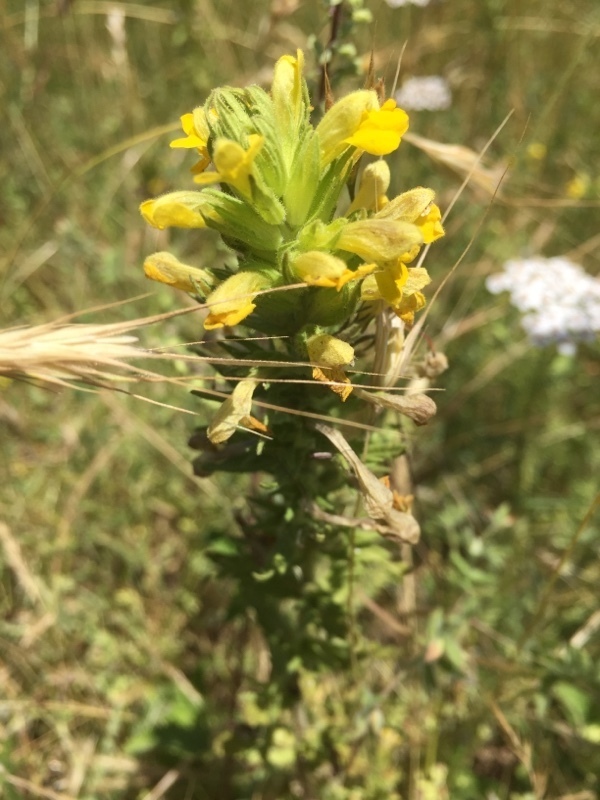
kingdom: Plantae
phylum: Tracheophyta
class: Magnoliopsida
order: Lamiales
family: Orobanchaceae
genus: Bellardia
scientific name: Bellardia viscosa
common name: Sticky parentucellia
